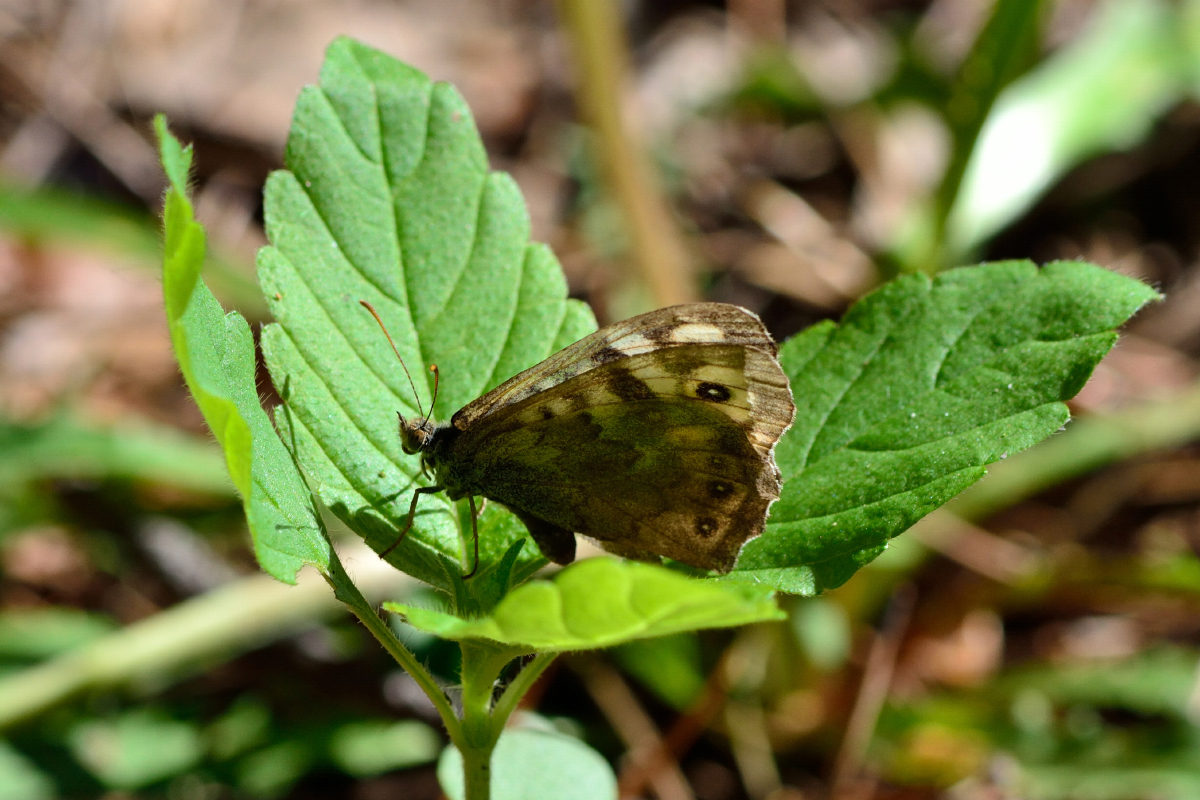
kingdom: Animalia
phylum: Arthropoda
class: Insecta
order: Lepidoptera
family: Nymphalidae
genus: Pararge
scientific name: Pararge aegeria
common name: Speckled wood
